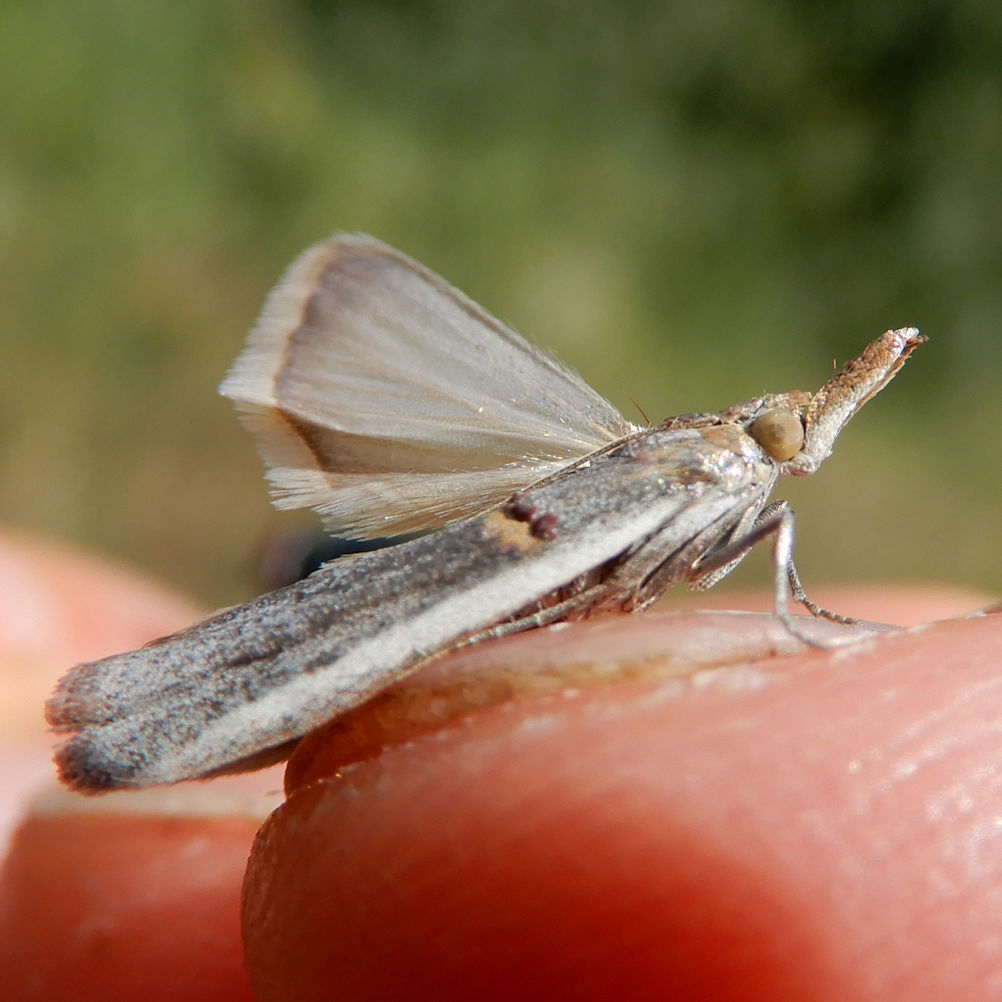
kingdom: Animalia
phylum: Arthropoda
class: Insecta
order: Lepidoptera
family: Pyralidae
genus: Etiella
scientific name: Etiella zinckenella
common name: Gold-banded etiella moth
